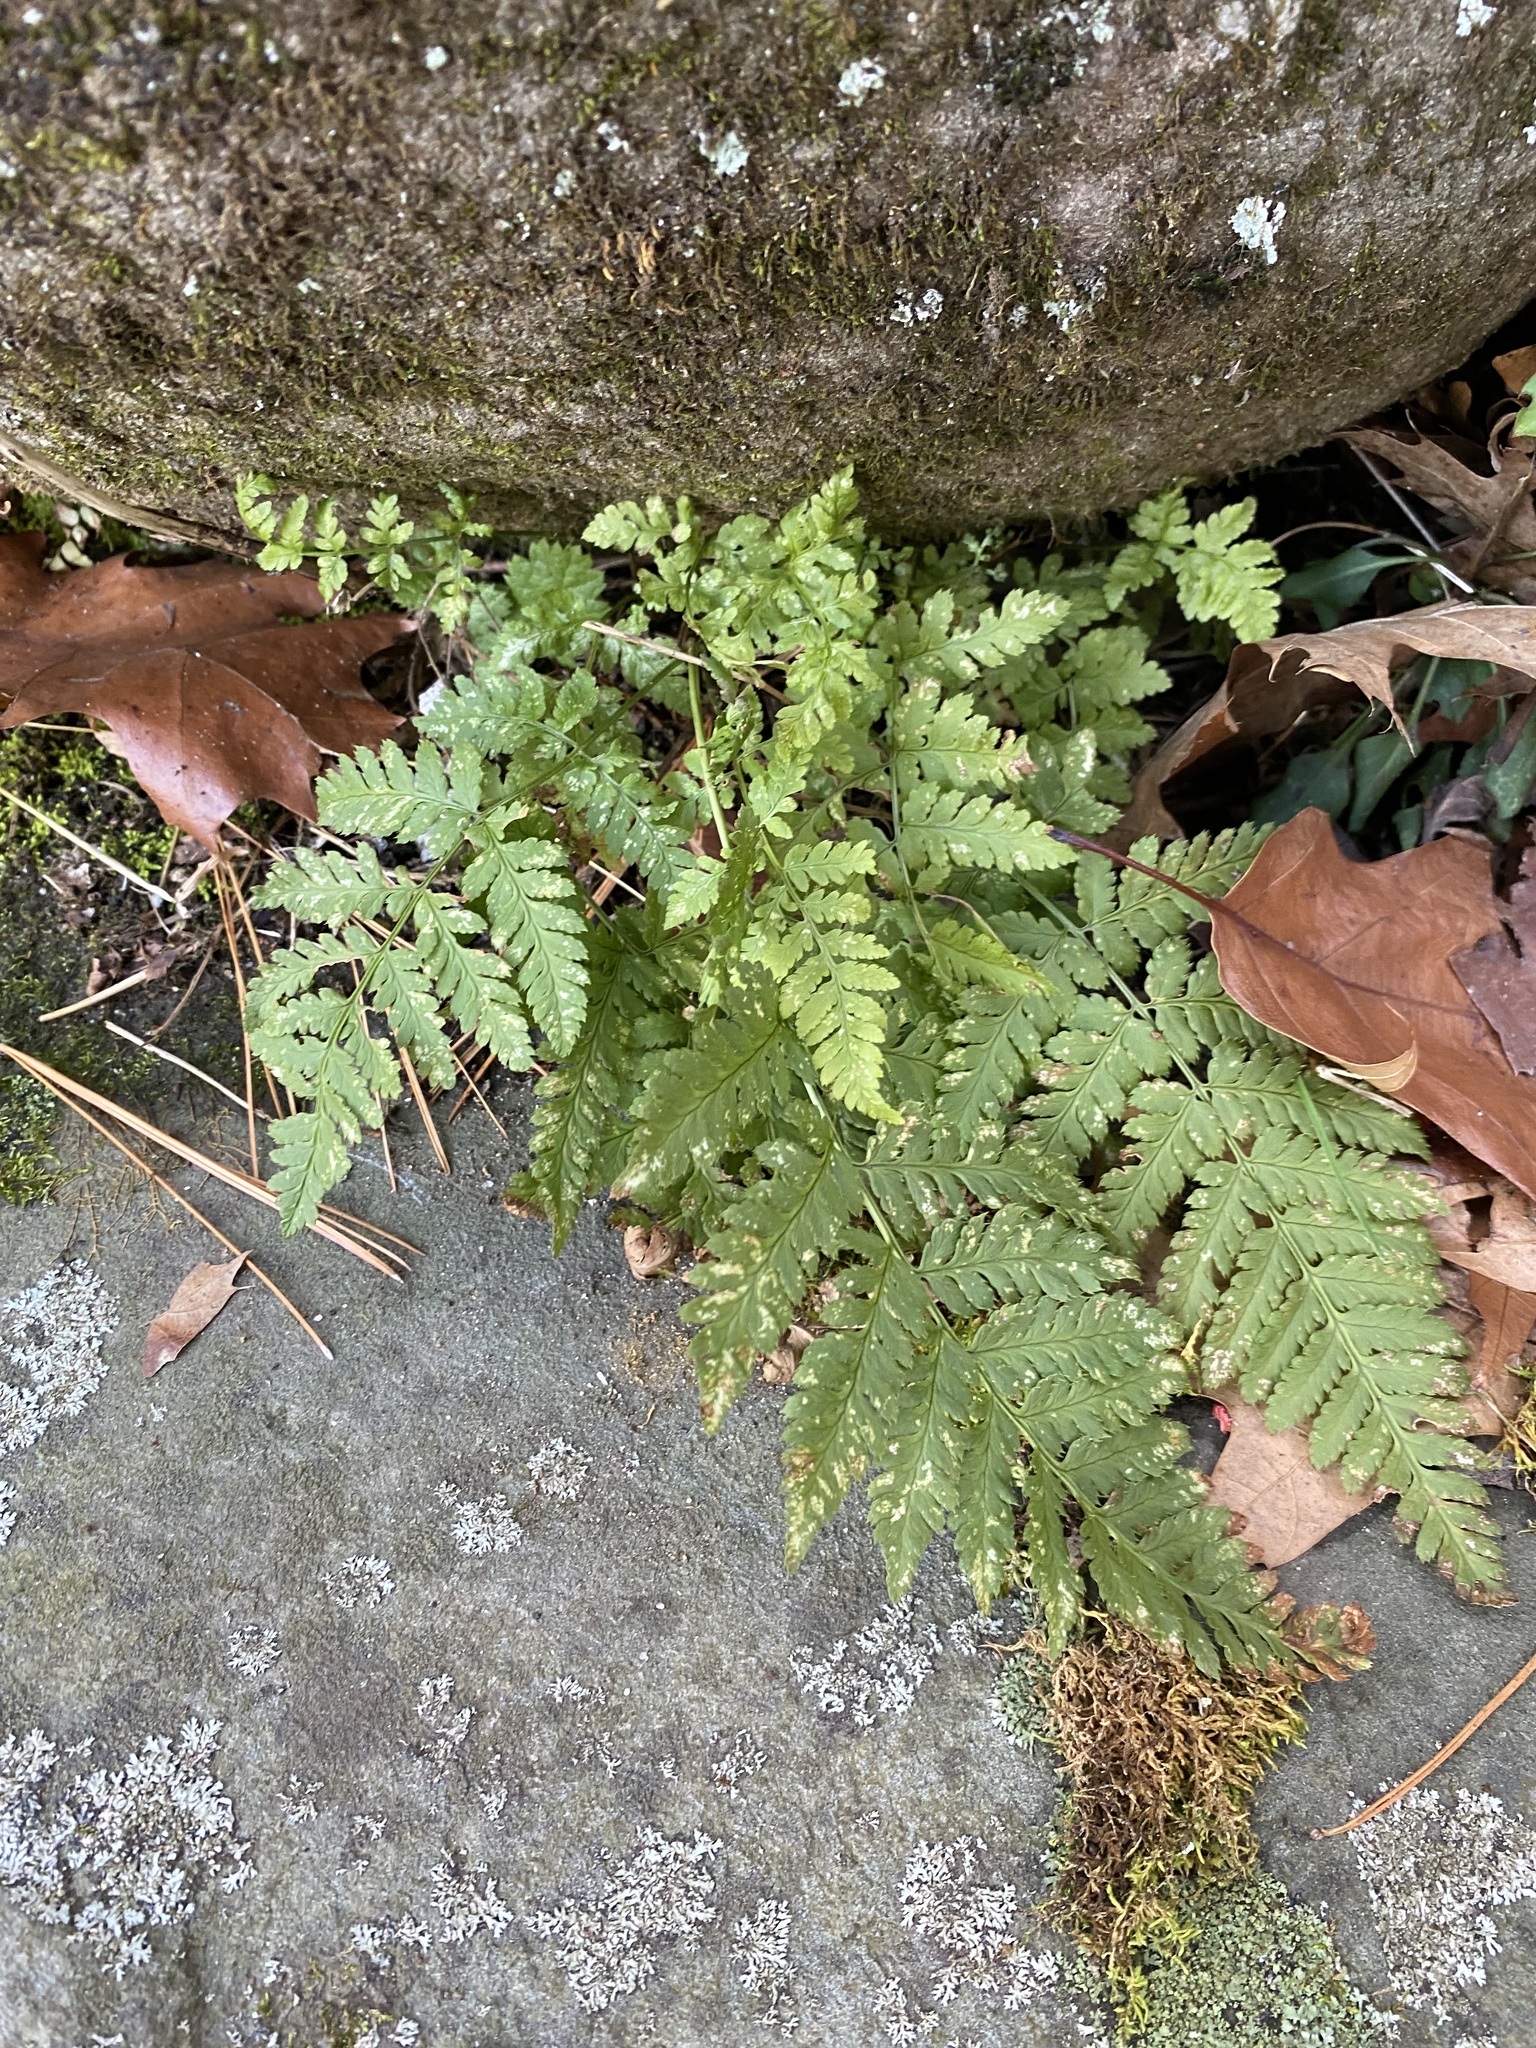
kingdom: Plantae
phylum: Tracheophyta
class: Polypodiopsida
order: Polypodiales
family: Dryopteridaceae
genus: Dryopteris
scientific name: Dryopteris carthusiana
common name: Narrow buckler-fern
